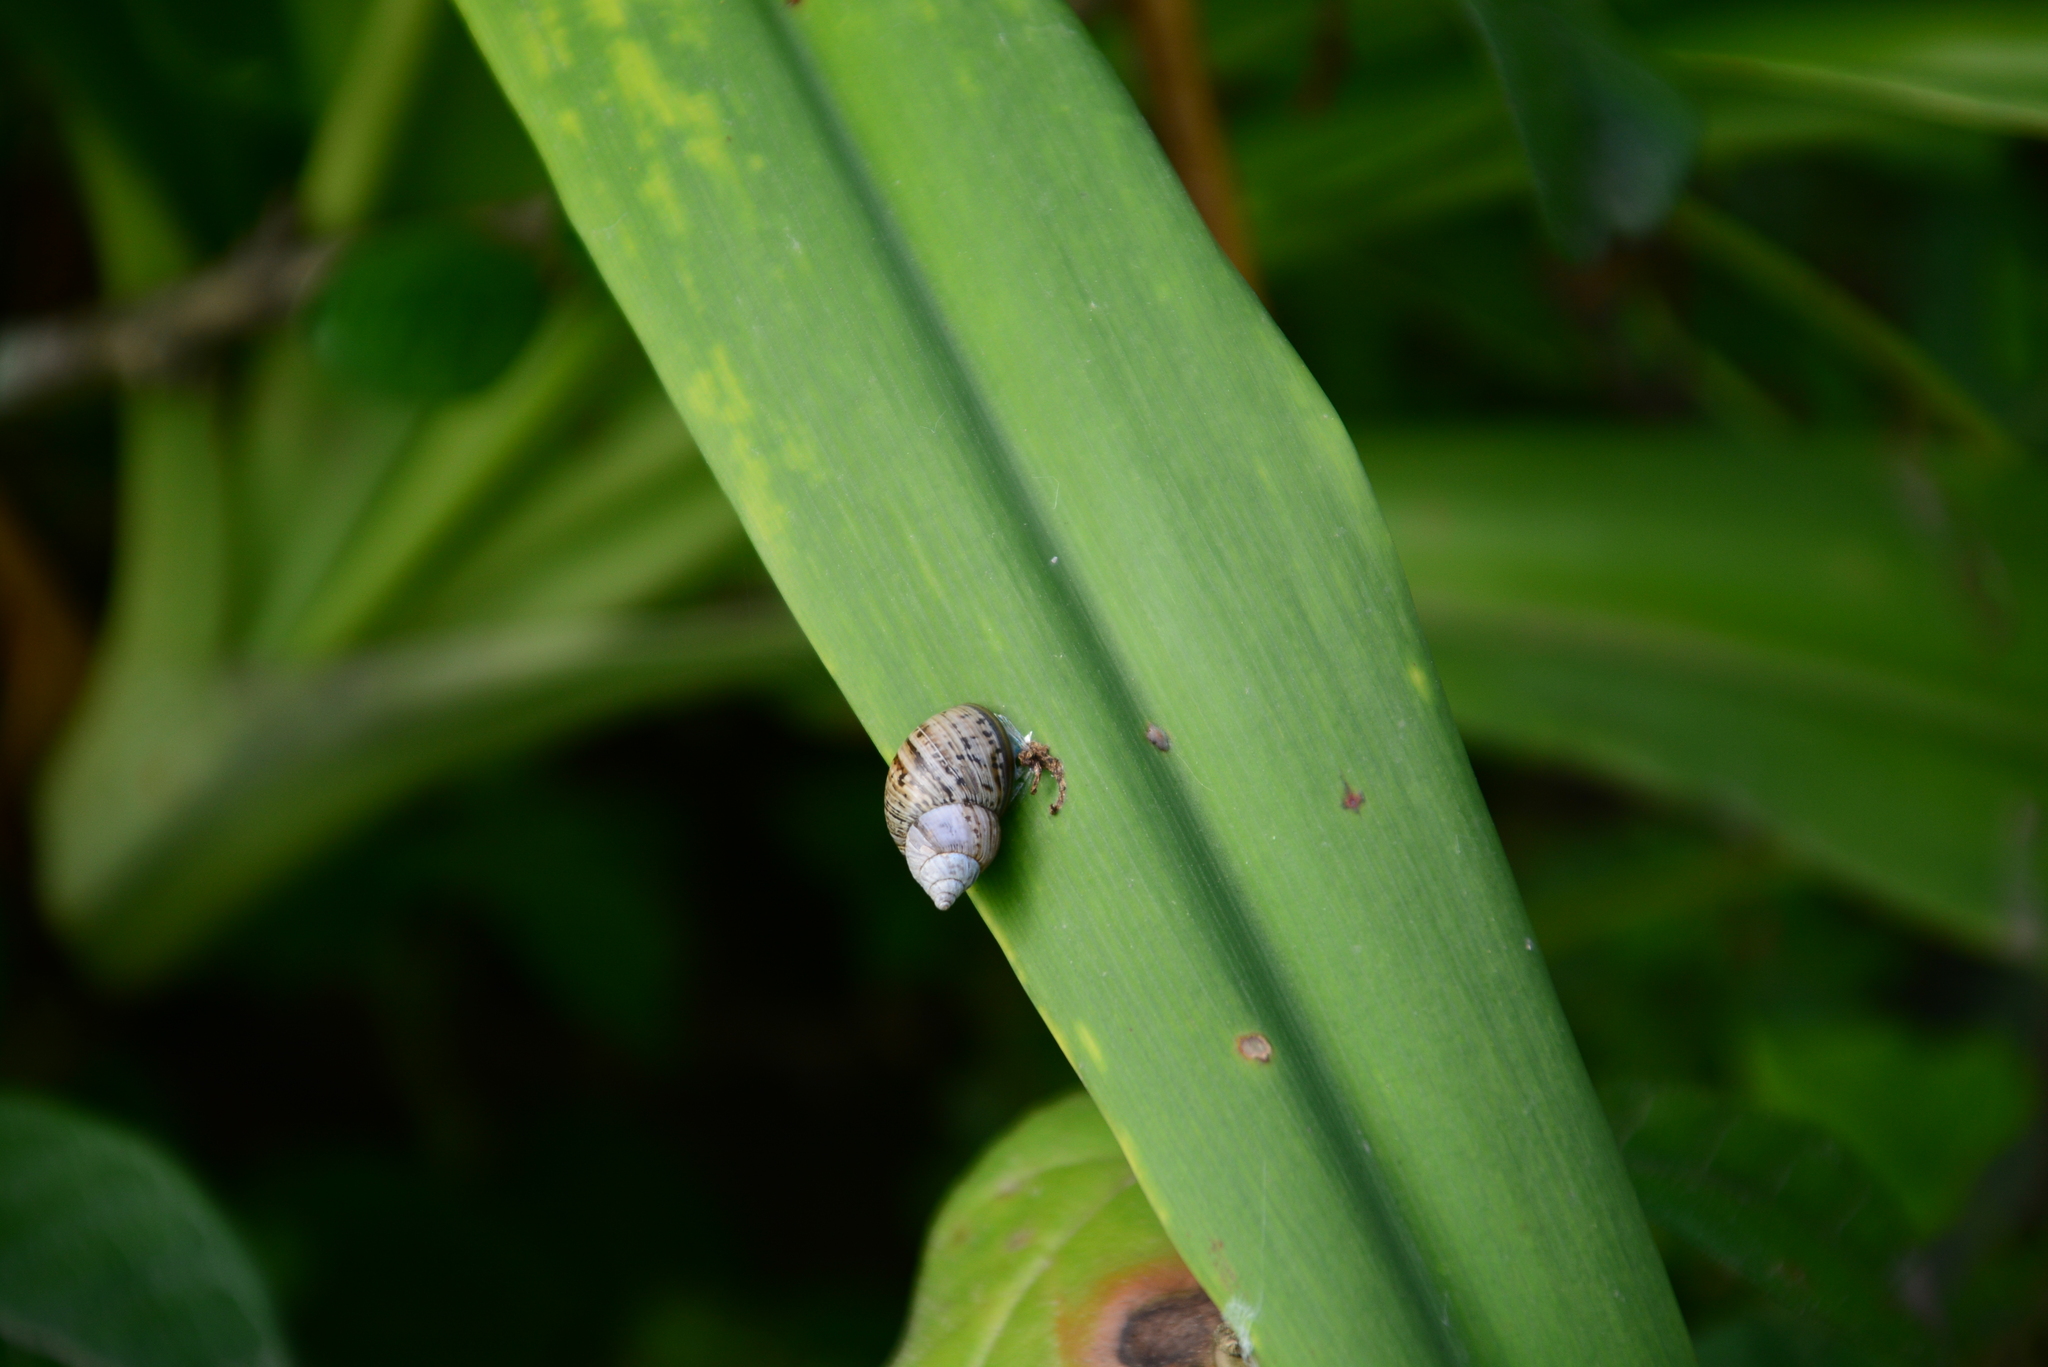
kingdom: Animalia
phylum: Mollusca
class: Gastropoda
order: Stylommatophora
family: Bulimulidae
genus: Bostryx
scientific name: Bostryx conspersus
